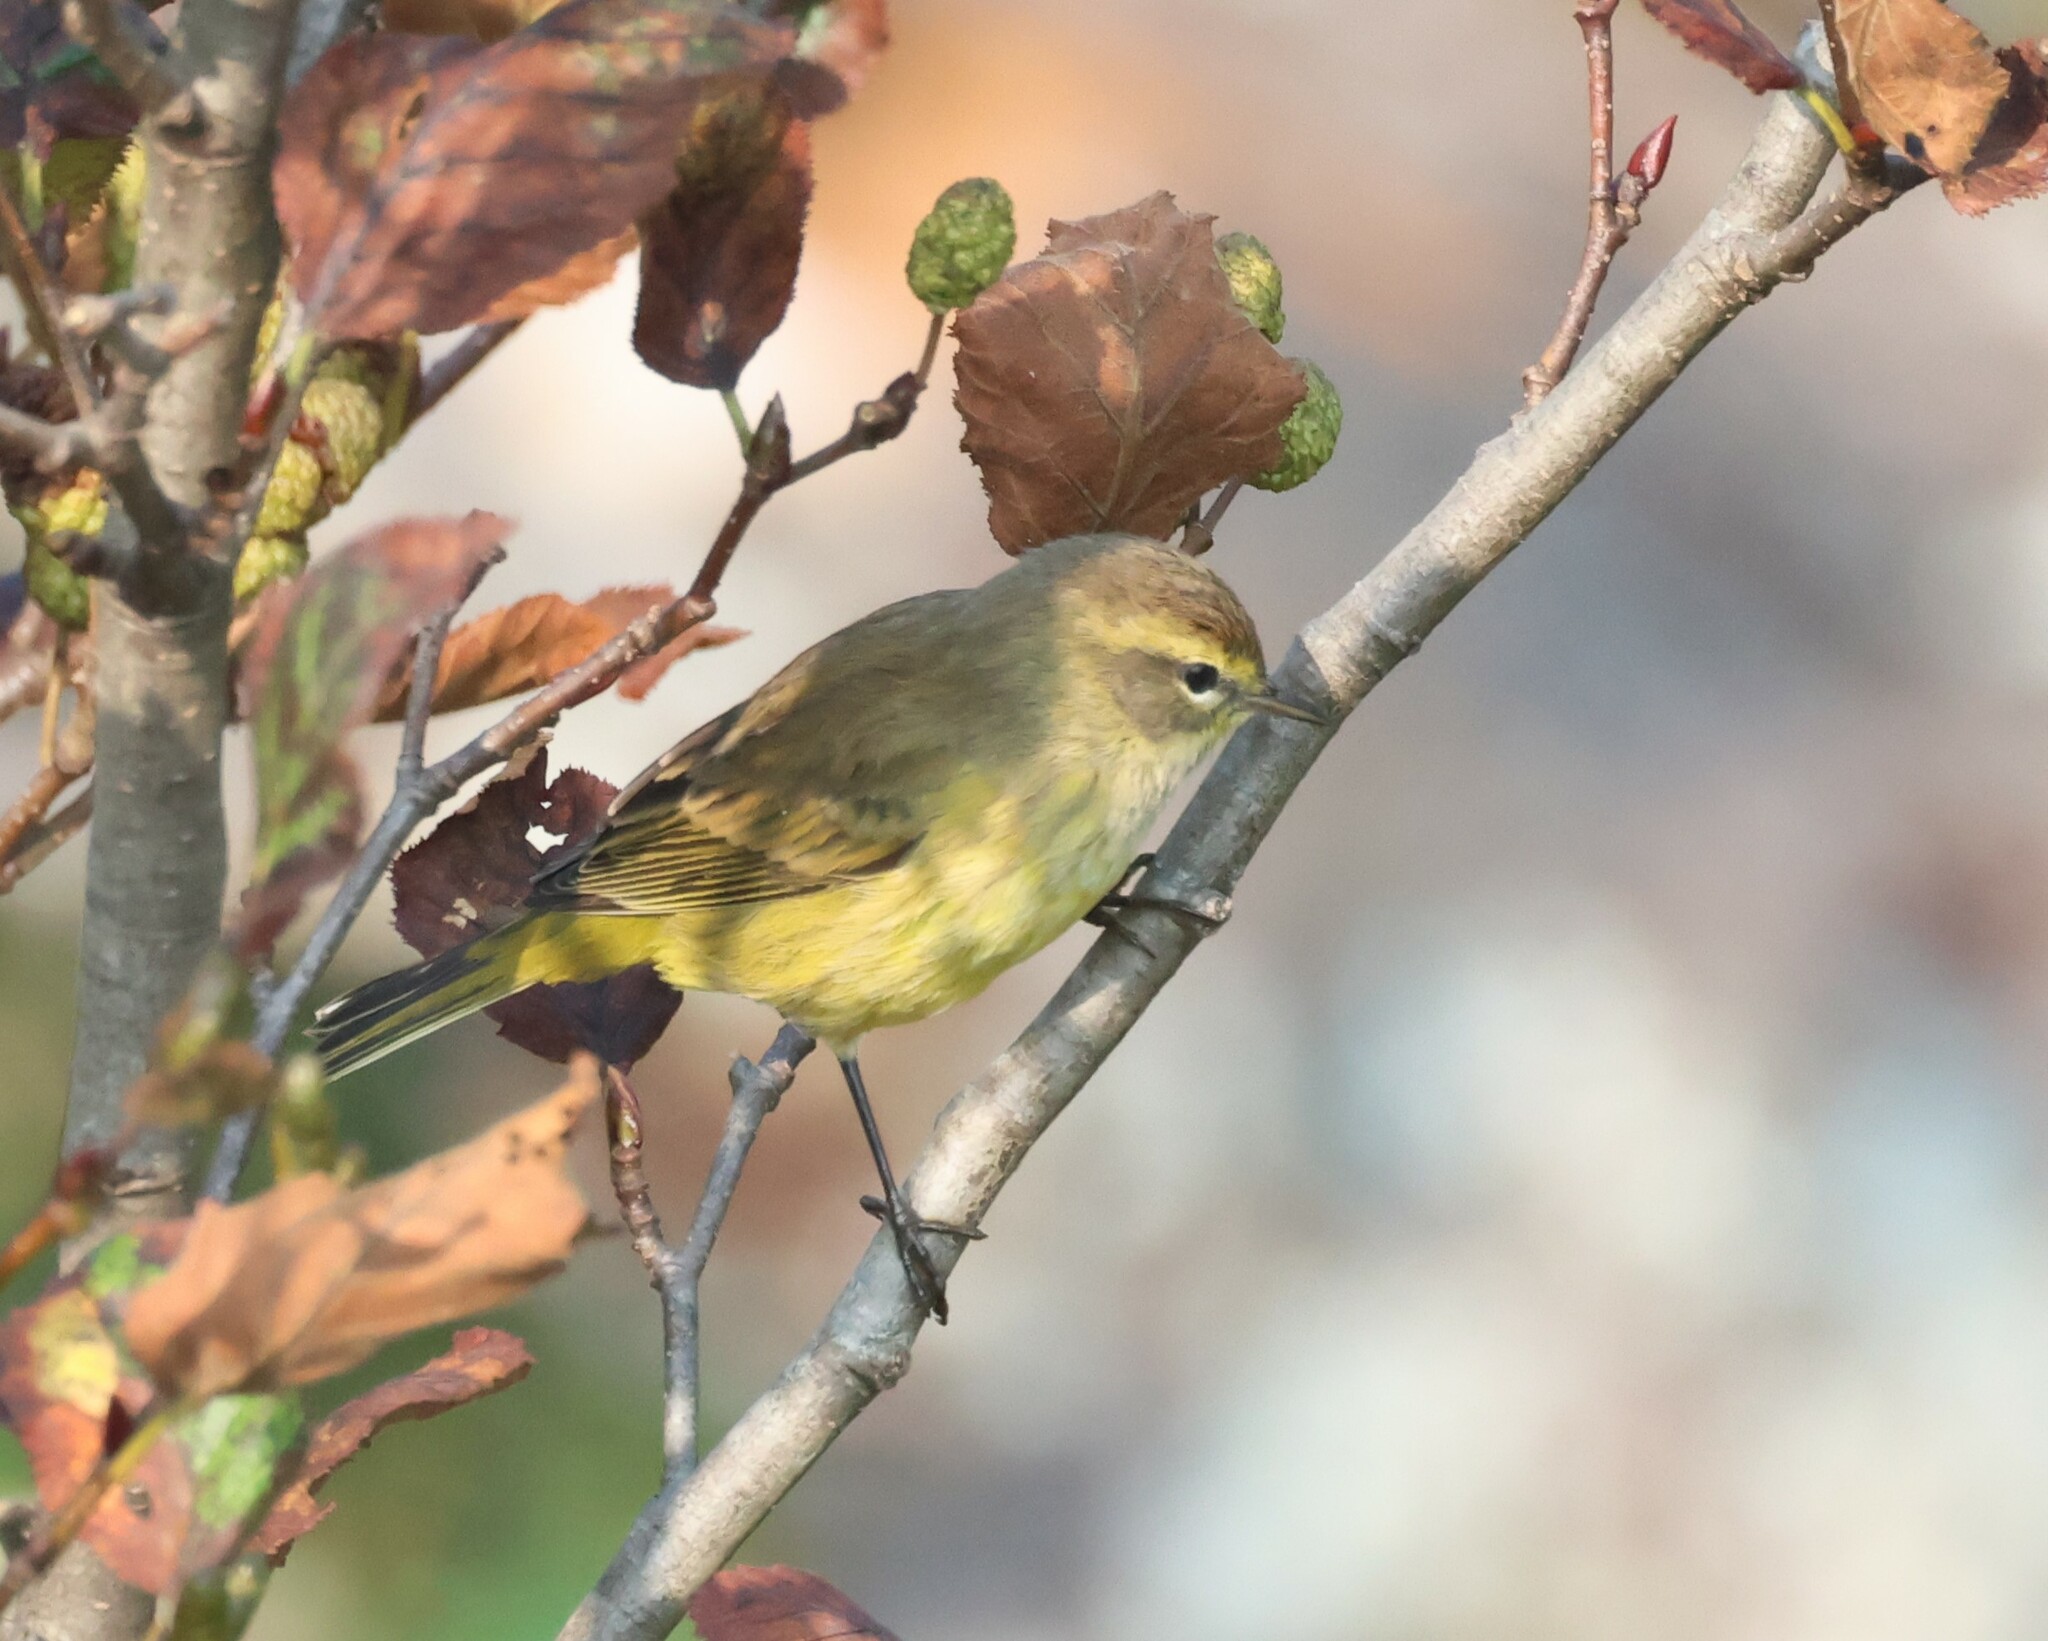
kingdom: Animalia
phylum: Chordata
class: Aves
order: Passeriformes
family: Parulidae
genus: Setophaga
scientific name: Setophaga palmarum
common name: Palm warbler
